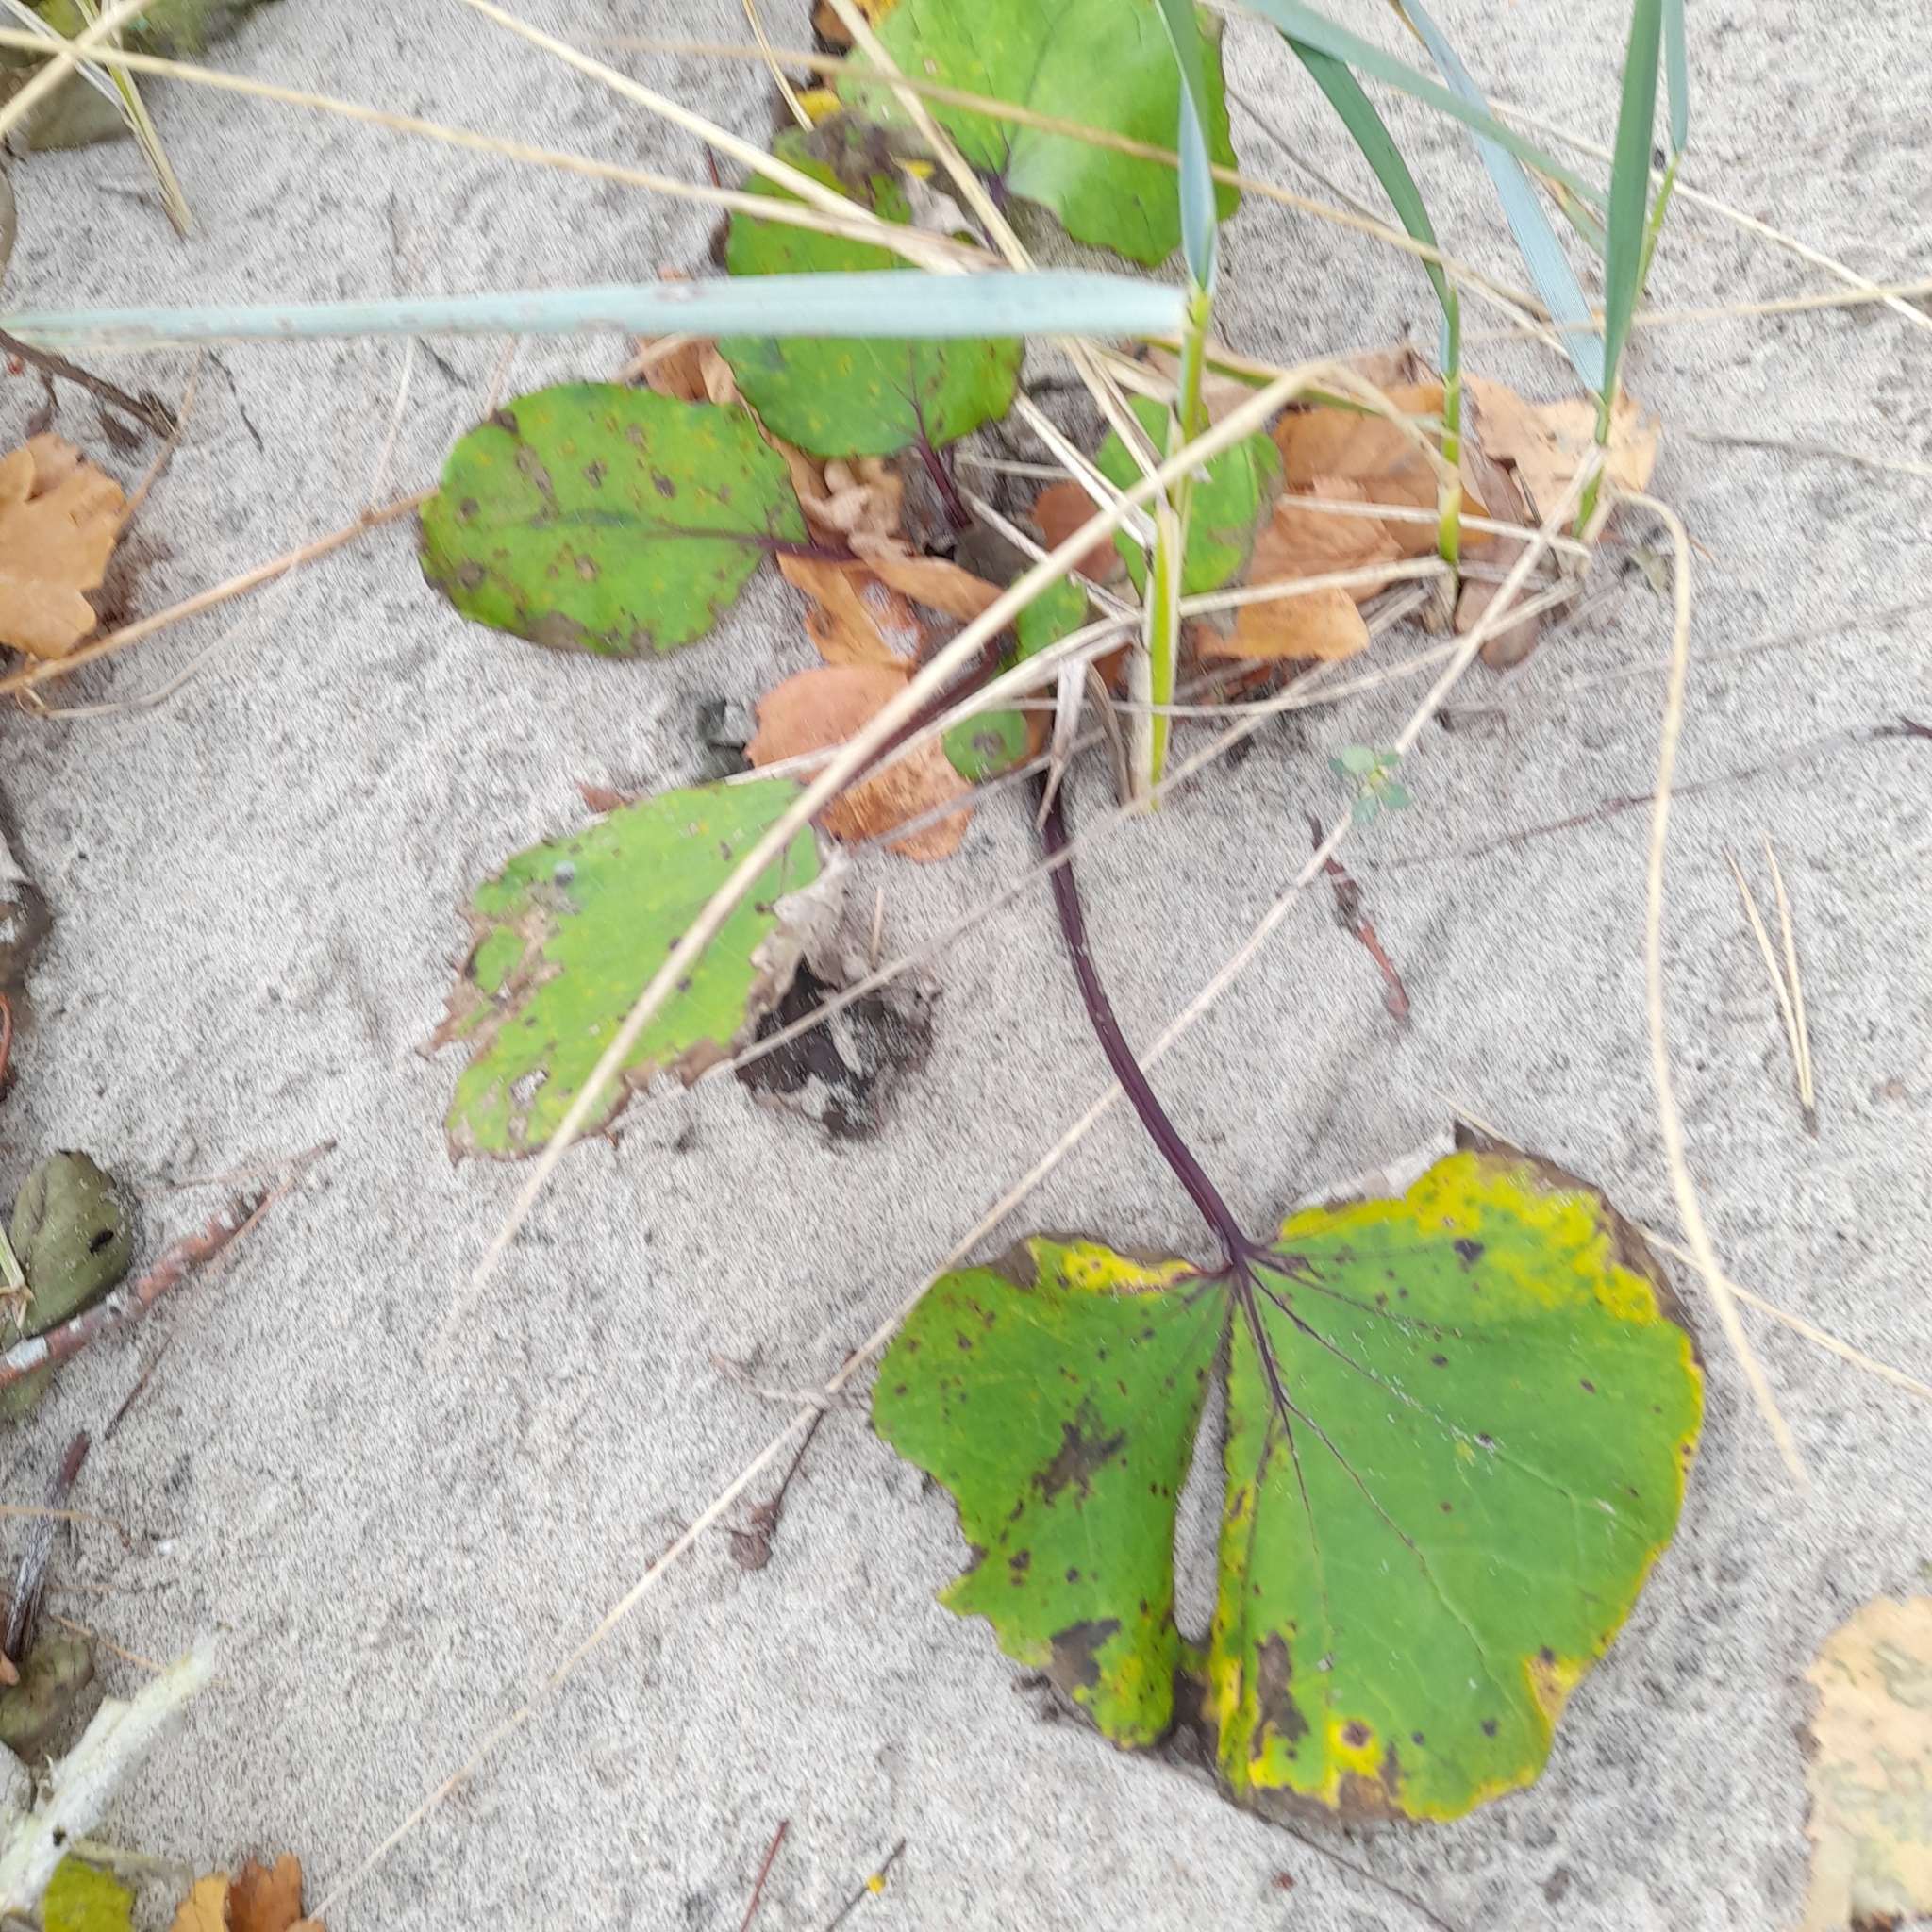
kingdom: Plantae
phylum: Tracheophyta
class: Magnoliopsida
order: Asterales
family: Asteraceae
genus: Tussilago
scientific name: Tussilago farfara
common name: Coltsfoot
